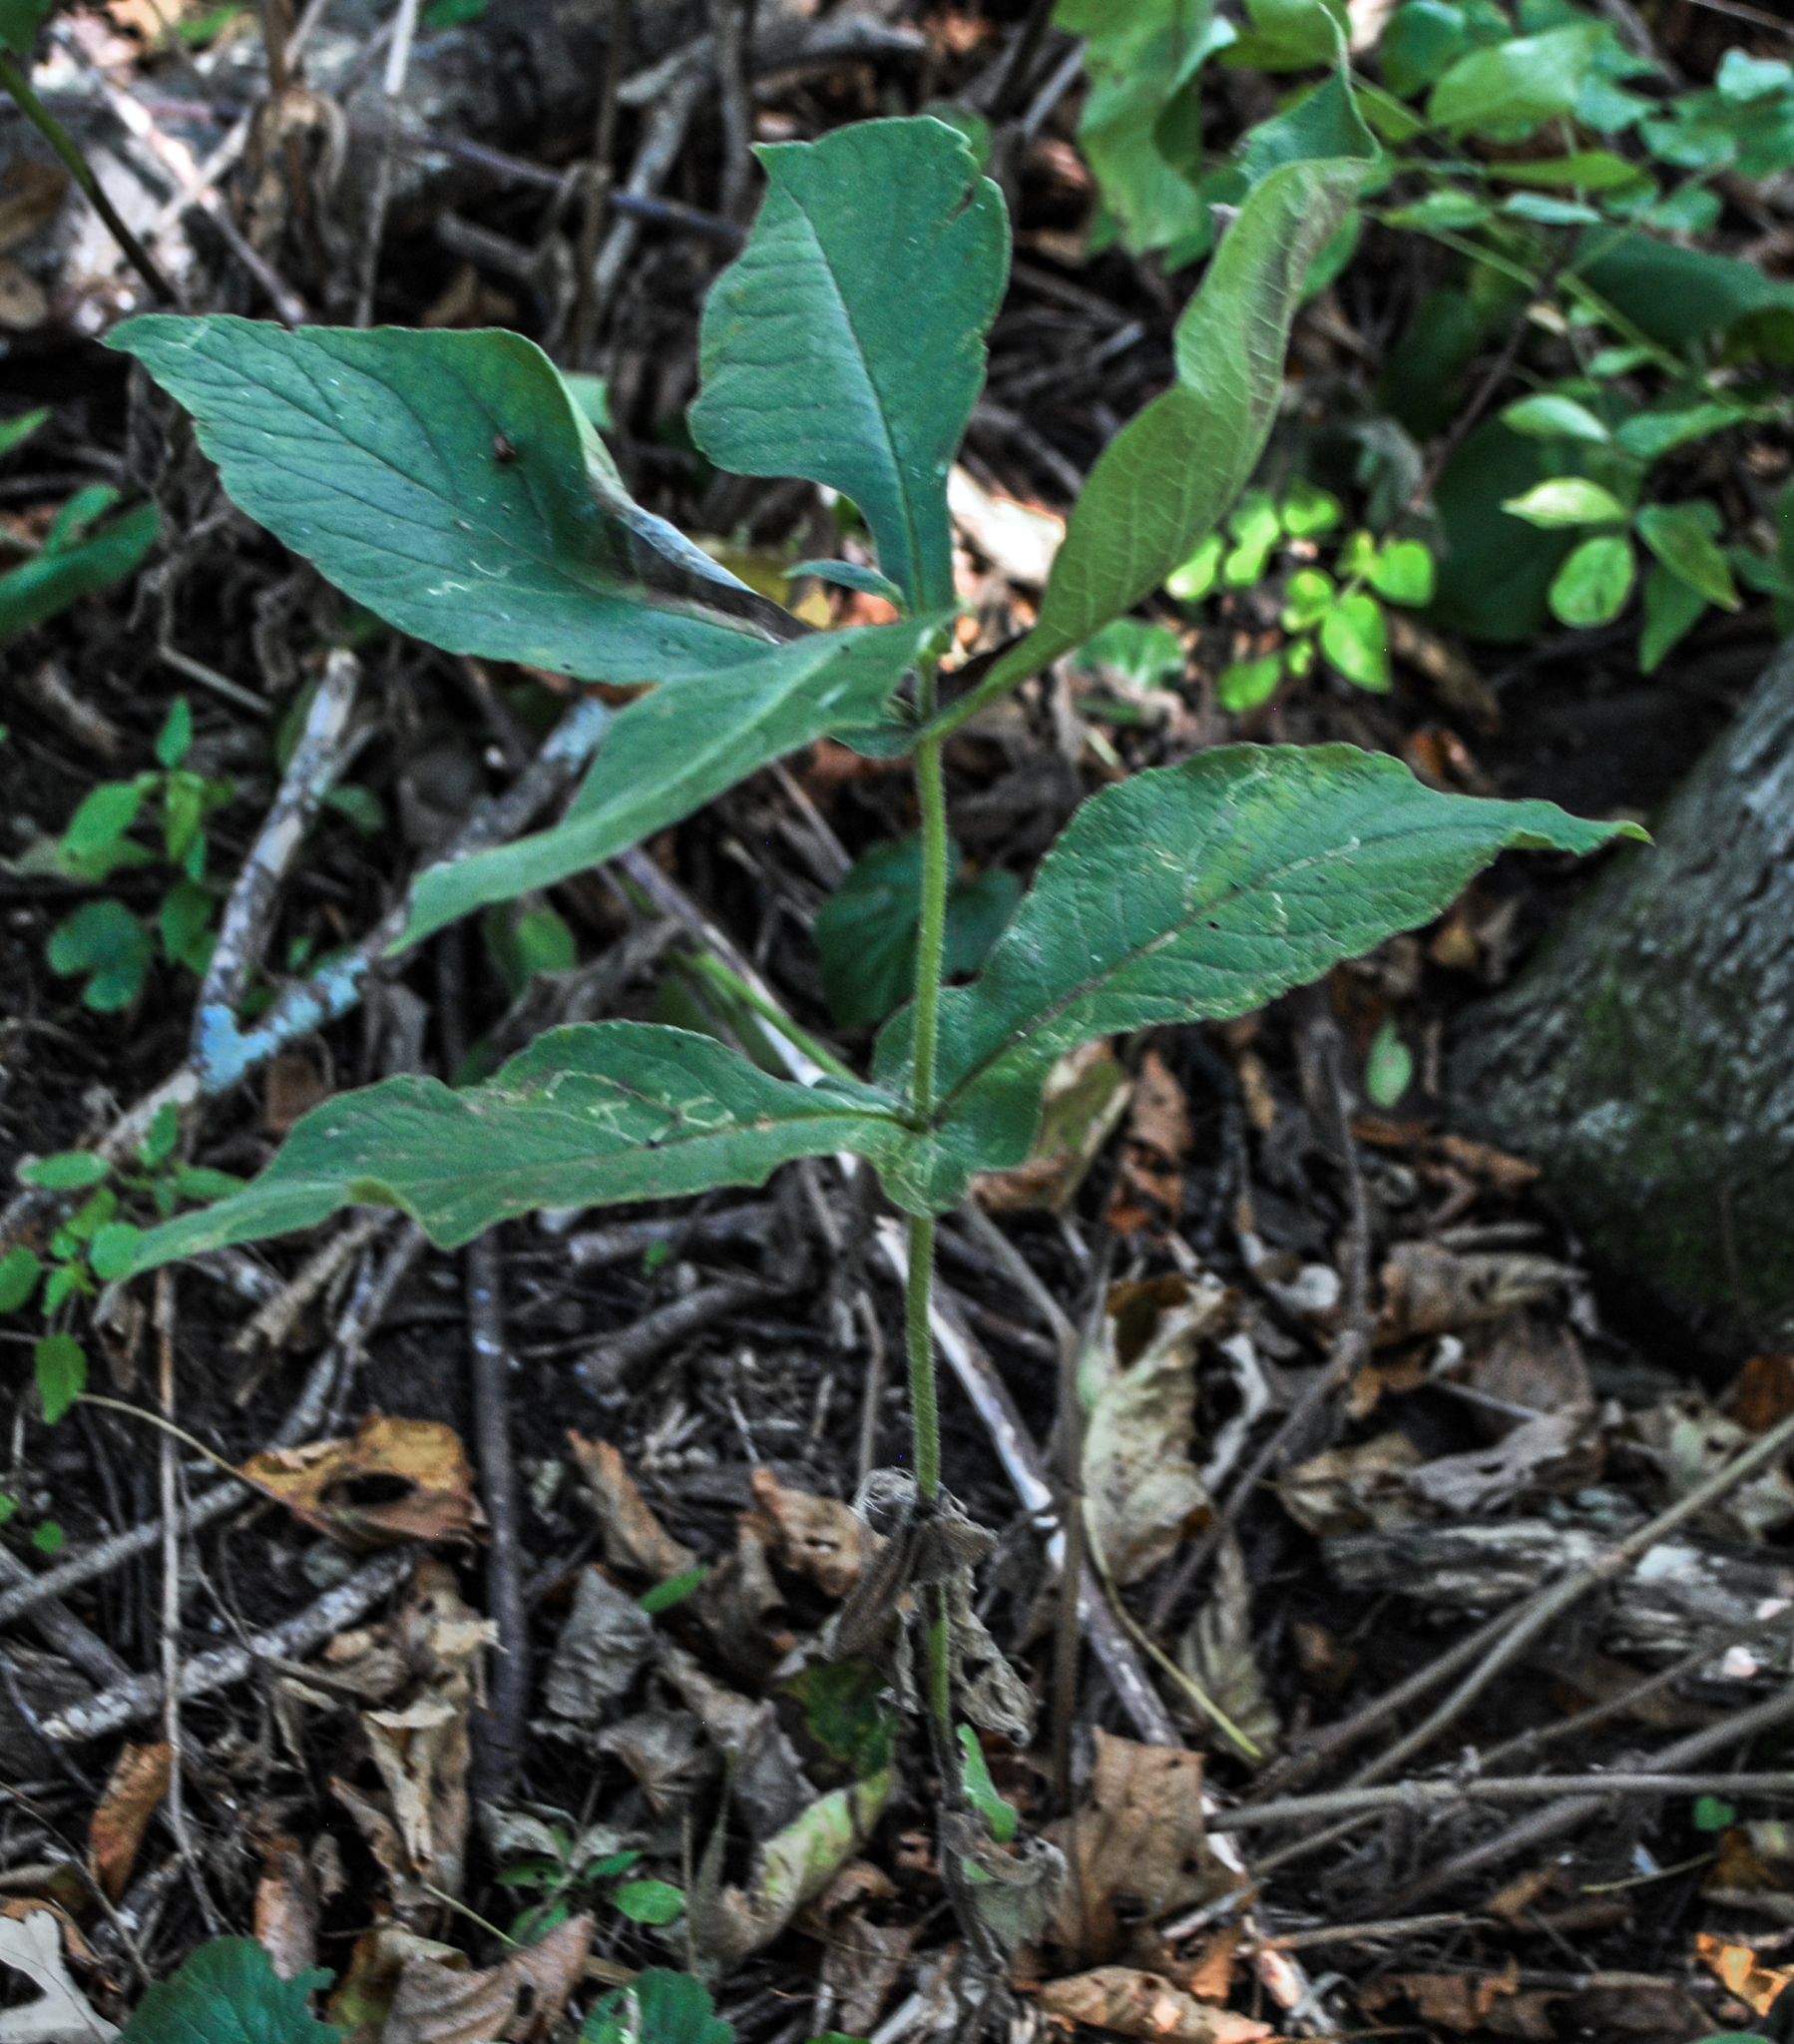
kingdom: Plantae
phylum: Tracheophyta
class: Magnoliopsida
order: Dipsacales
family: Caprifoliaceae
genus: Triosteum
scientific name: Triosteum perfoliatum
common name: Common horse-gentian
